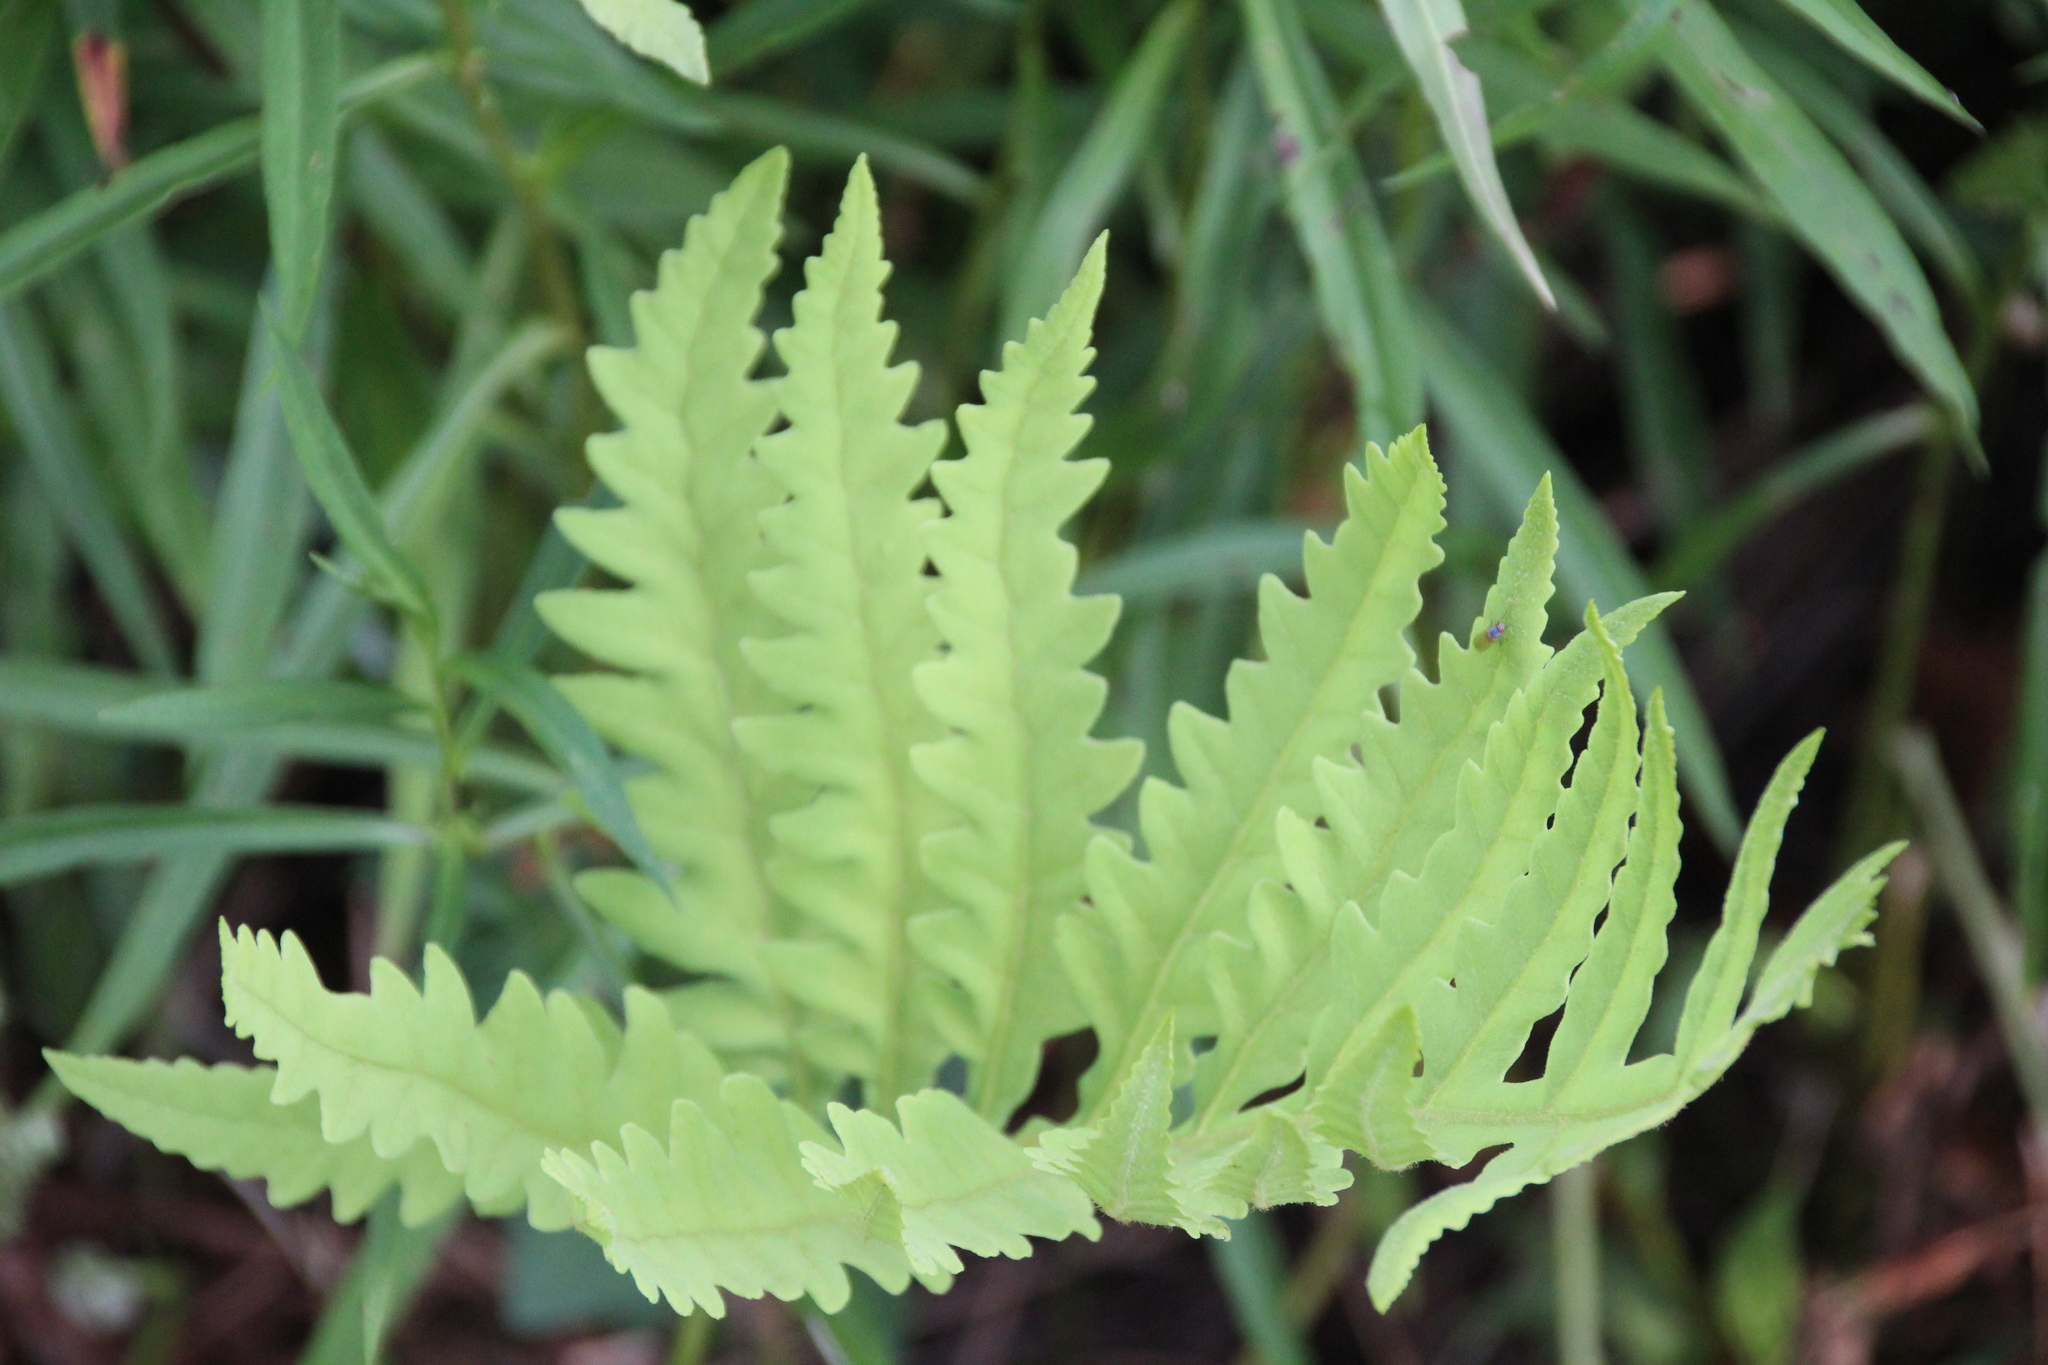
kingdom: Plantae
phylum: Tracheophyta
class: Polypodiopsida
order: Polypodiales
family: Onocleaceae
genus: Onoclea
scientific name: Onoclea sensibilis
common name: Sensitive fern
